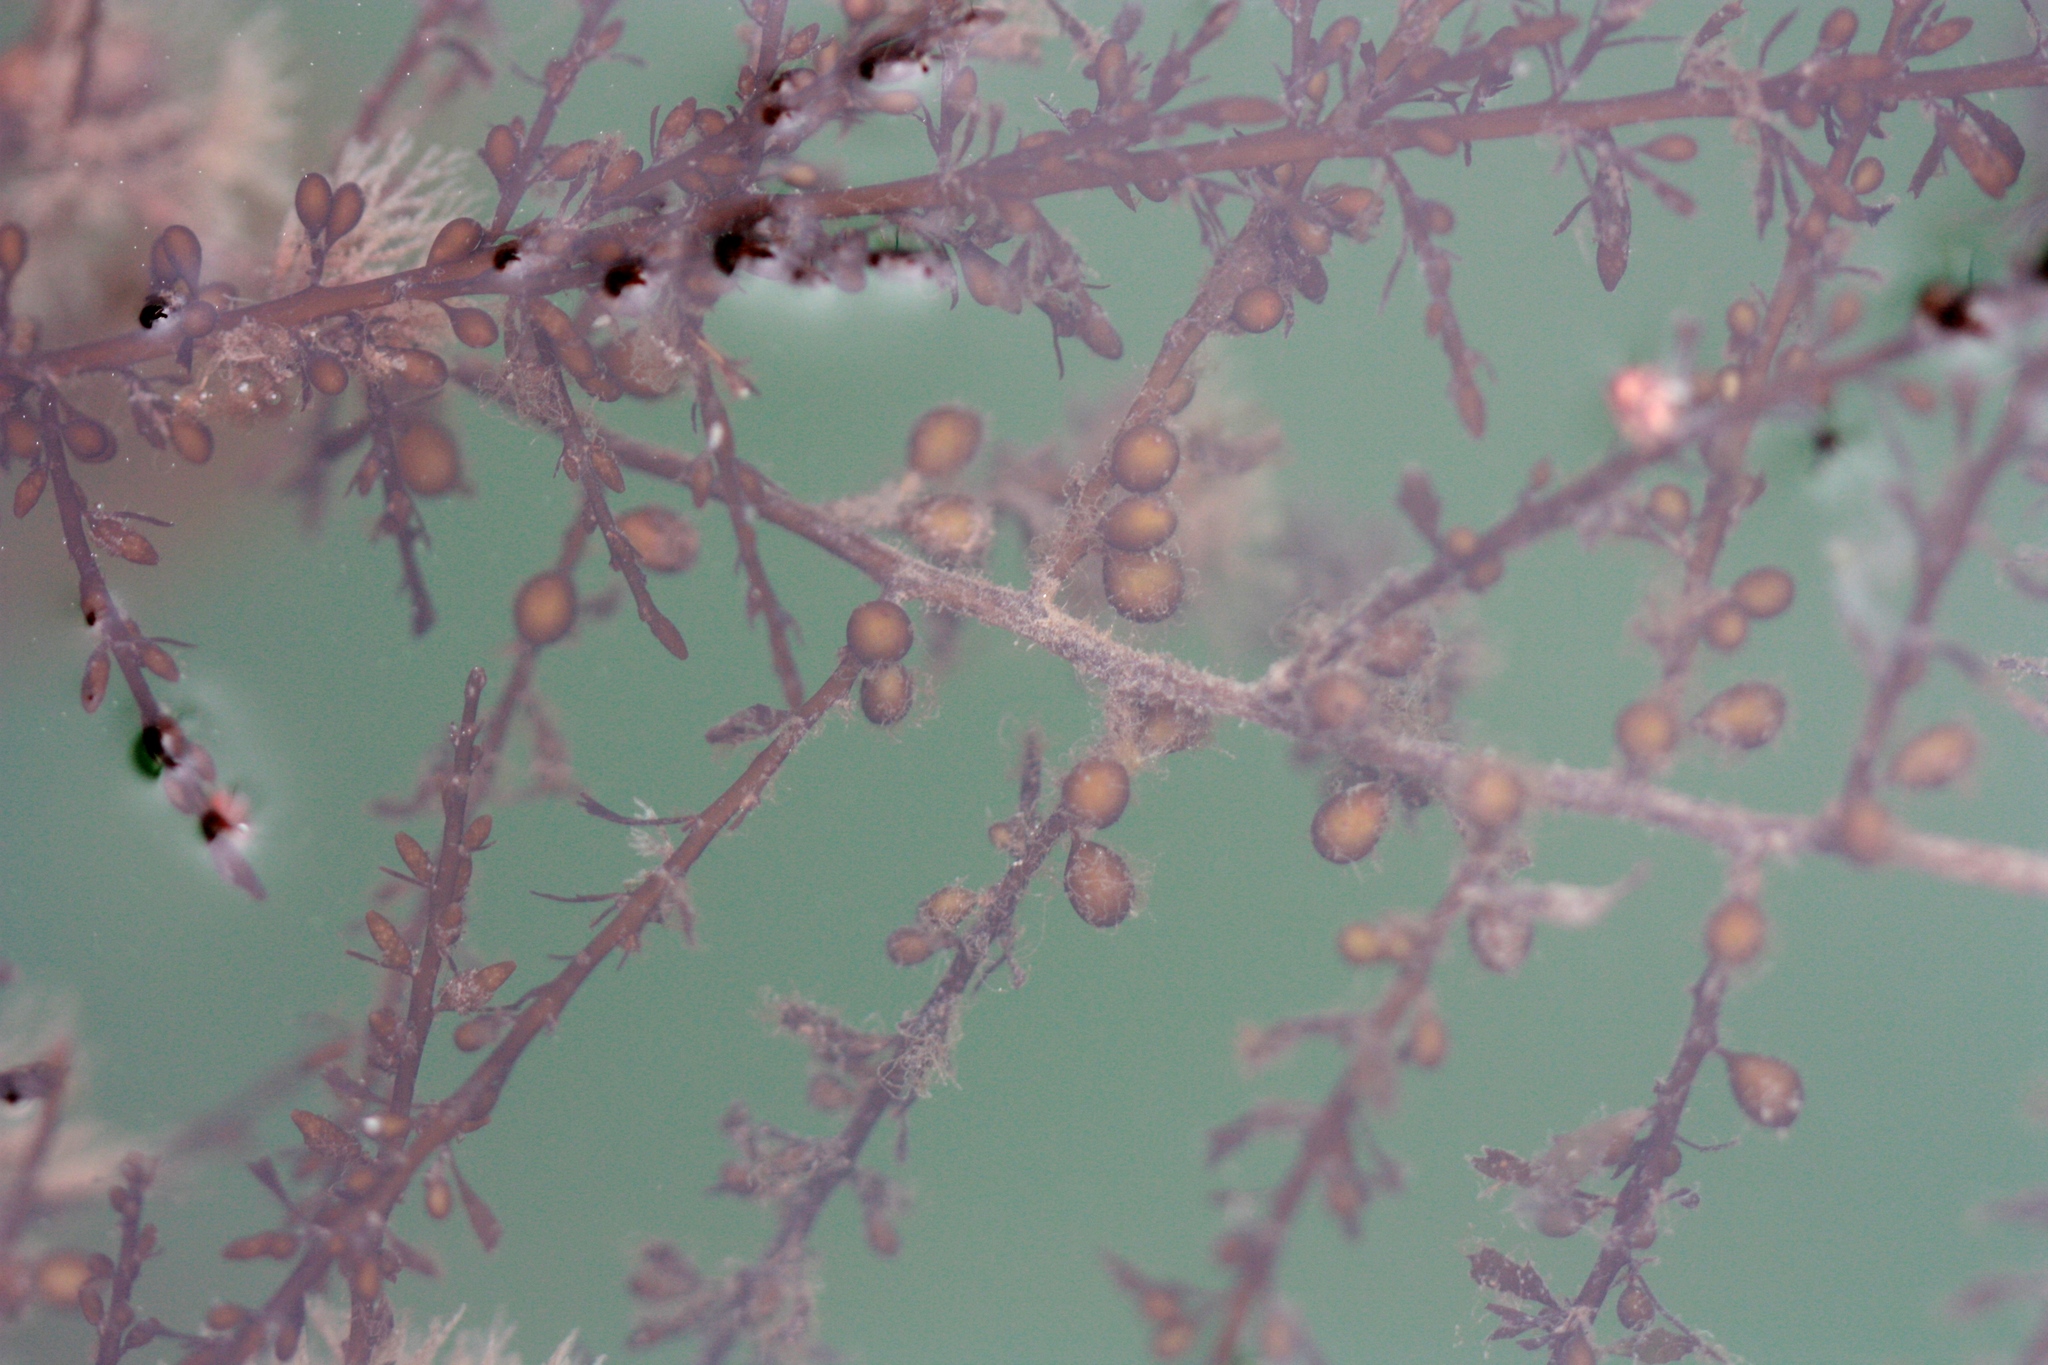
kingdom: Chromista
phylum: Ochrophyta
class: Phaeophyceae
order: Fucales
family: Sargassaceae
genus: Sargassum
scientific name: Sargassum muticum
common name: Japweed
